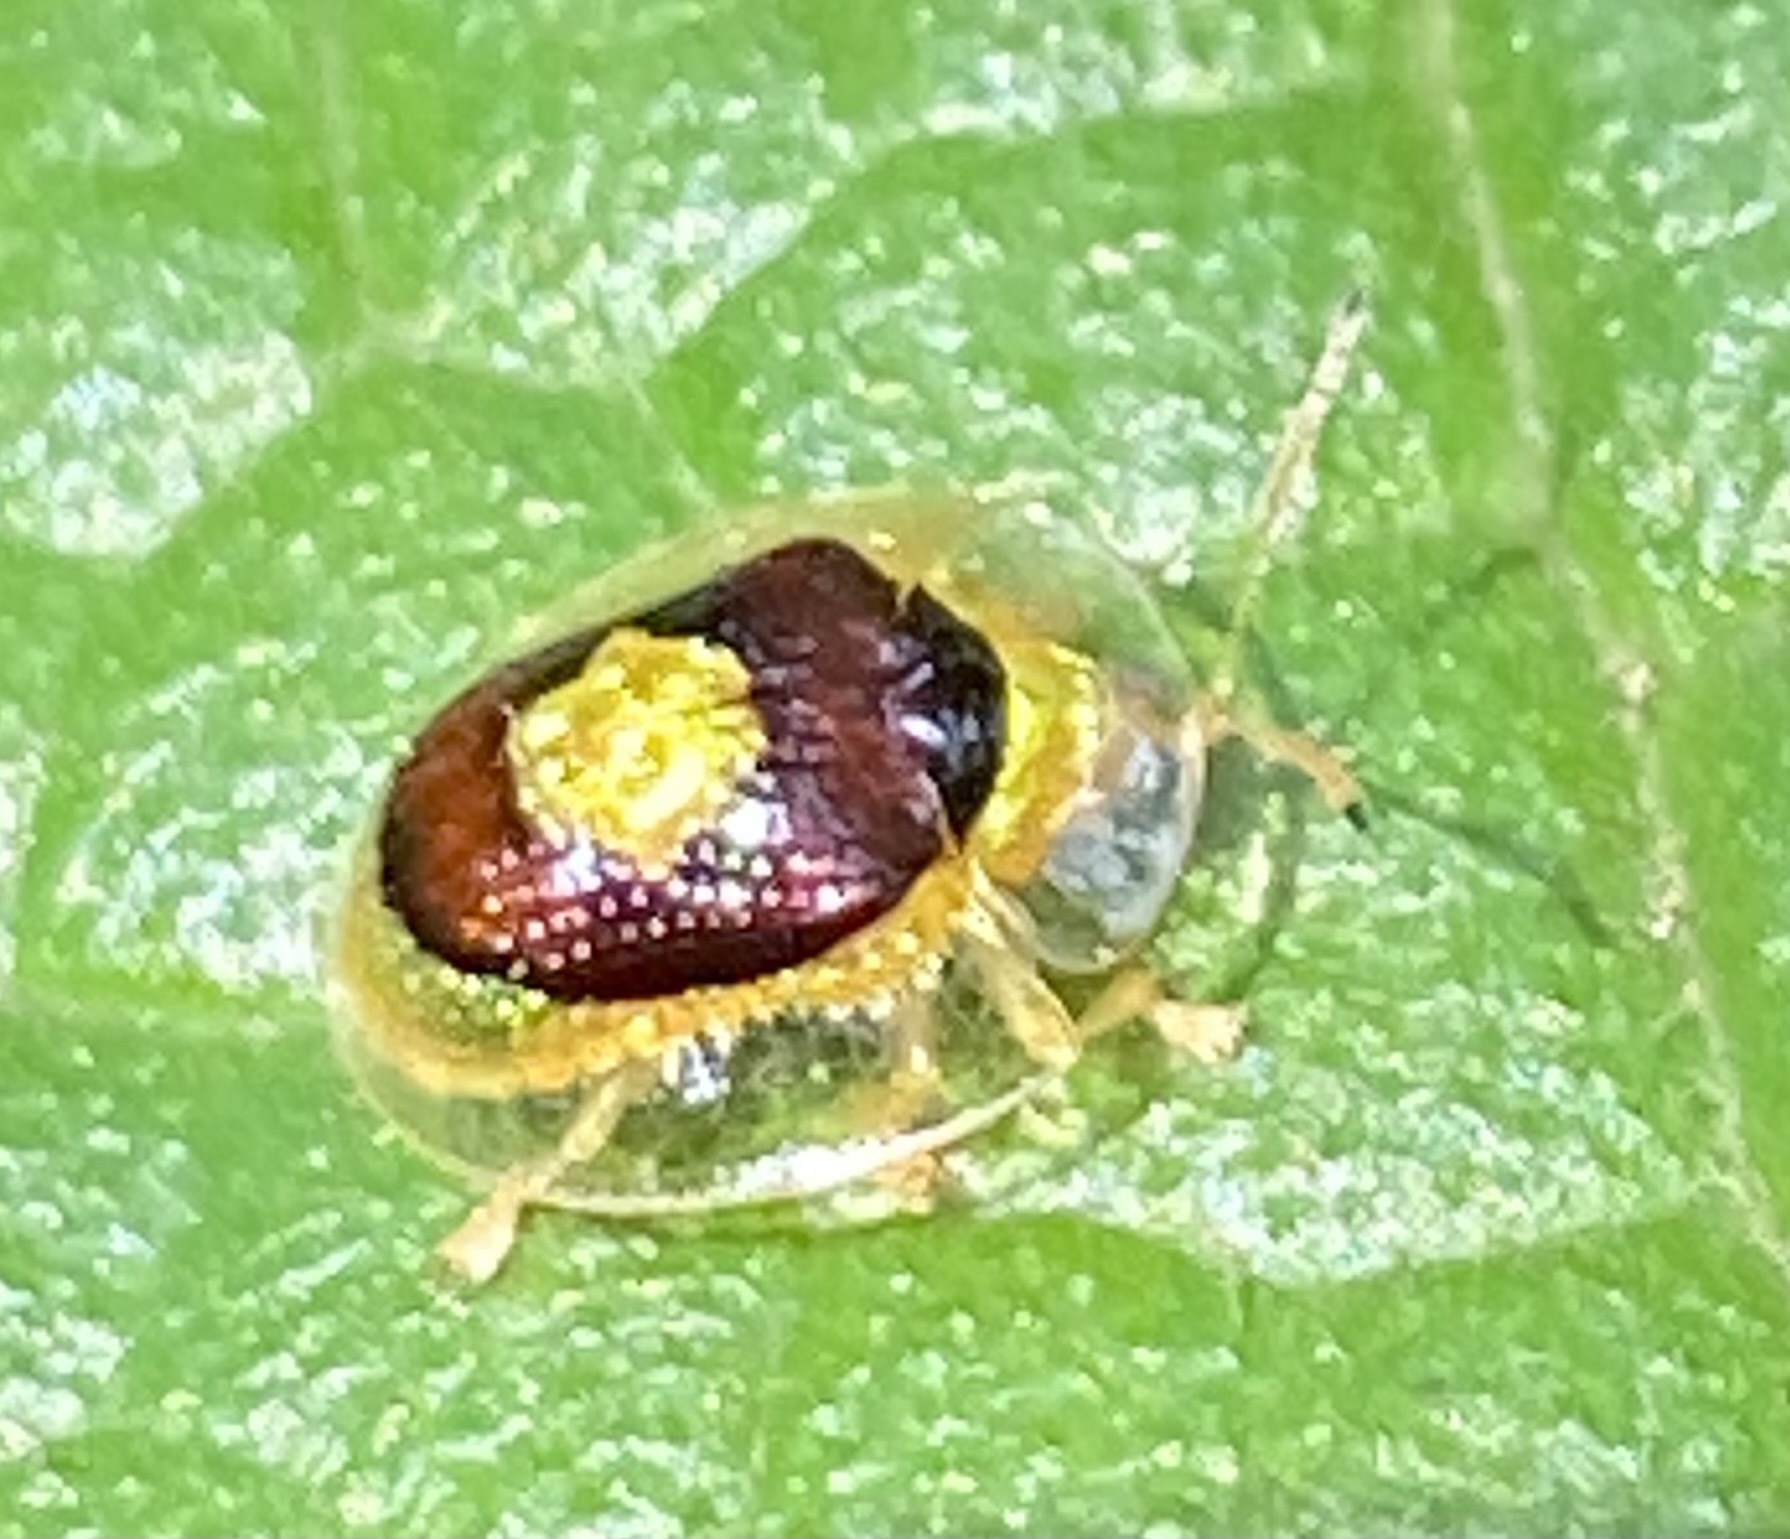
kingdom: Animalia
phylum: Arthropoda
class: Insecta
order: Coleoptera
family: Chrysomelidae
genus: Microctenochira
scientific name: Microctenochira porosa
